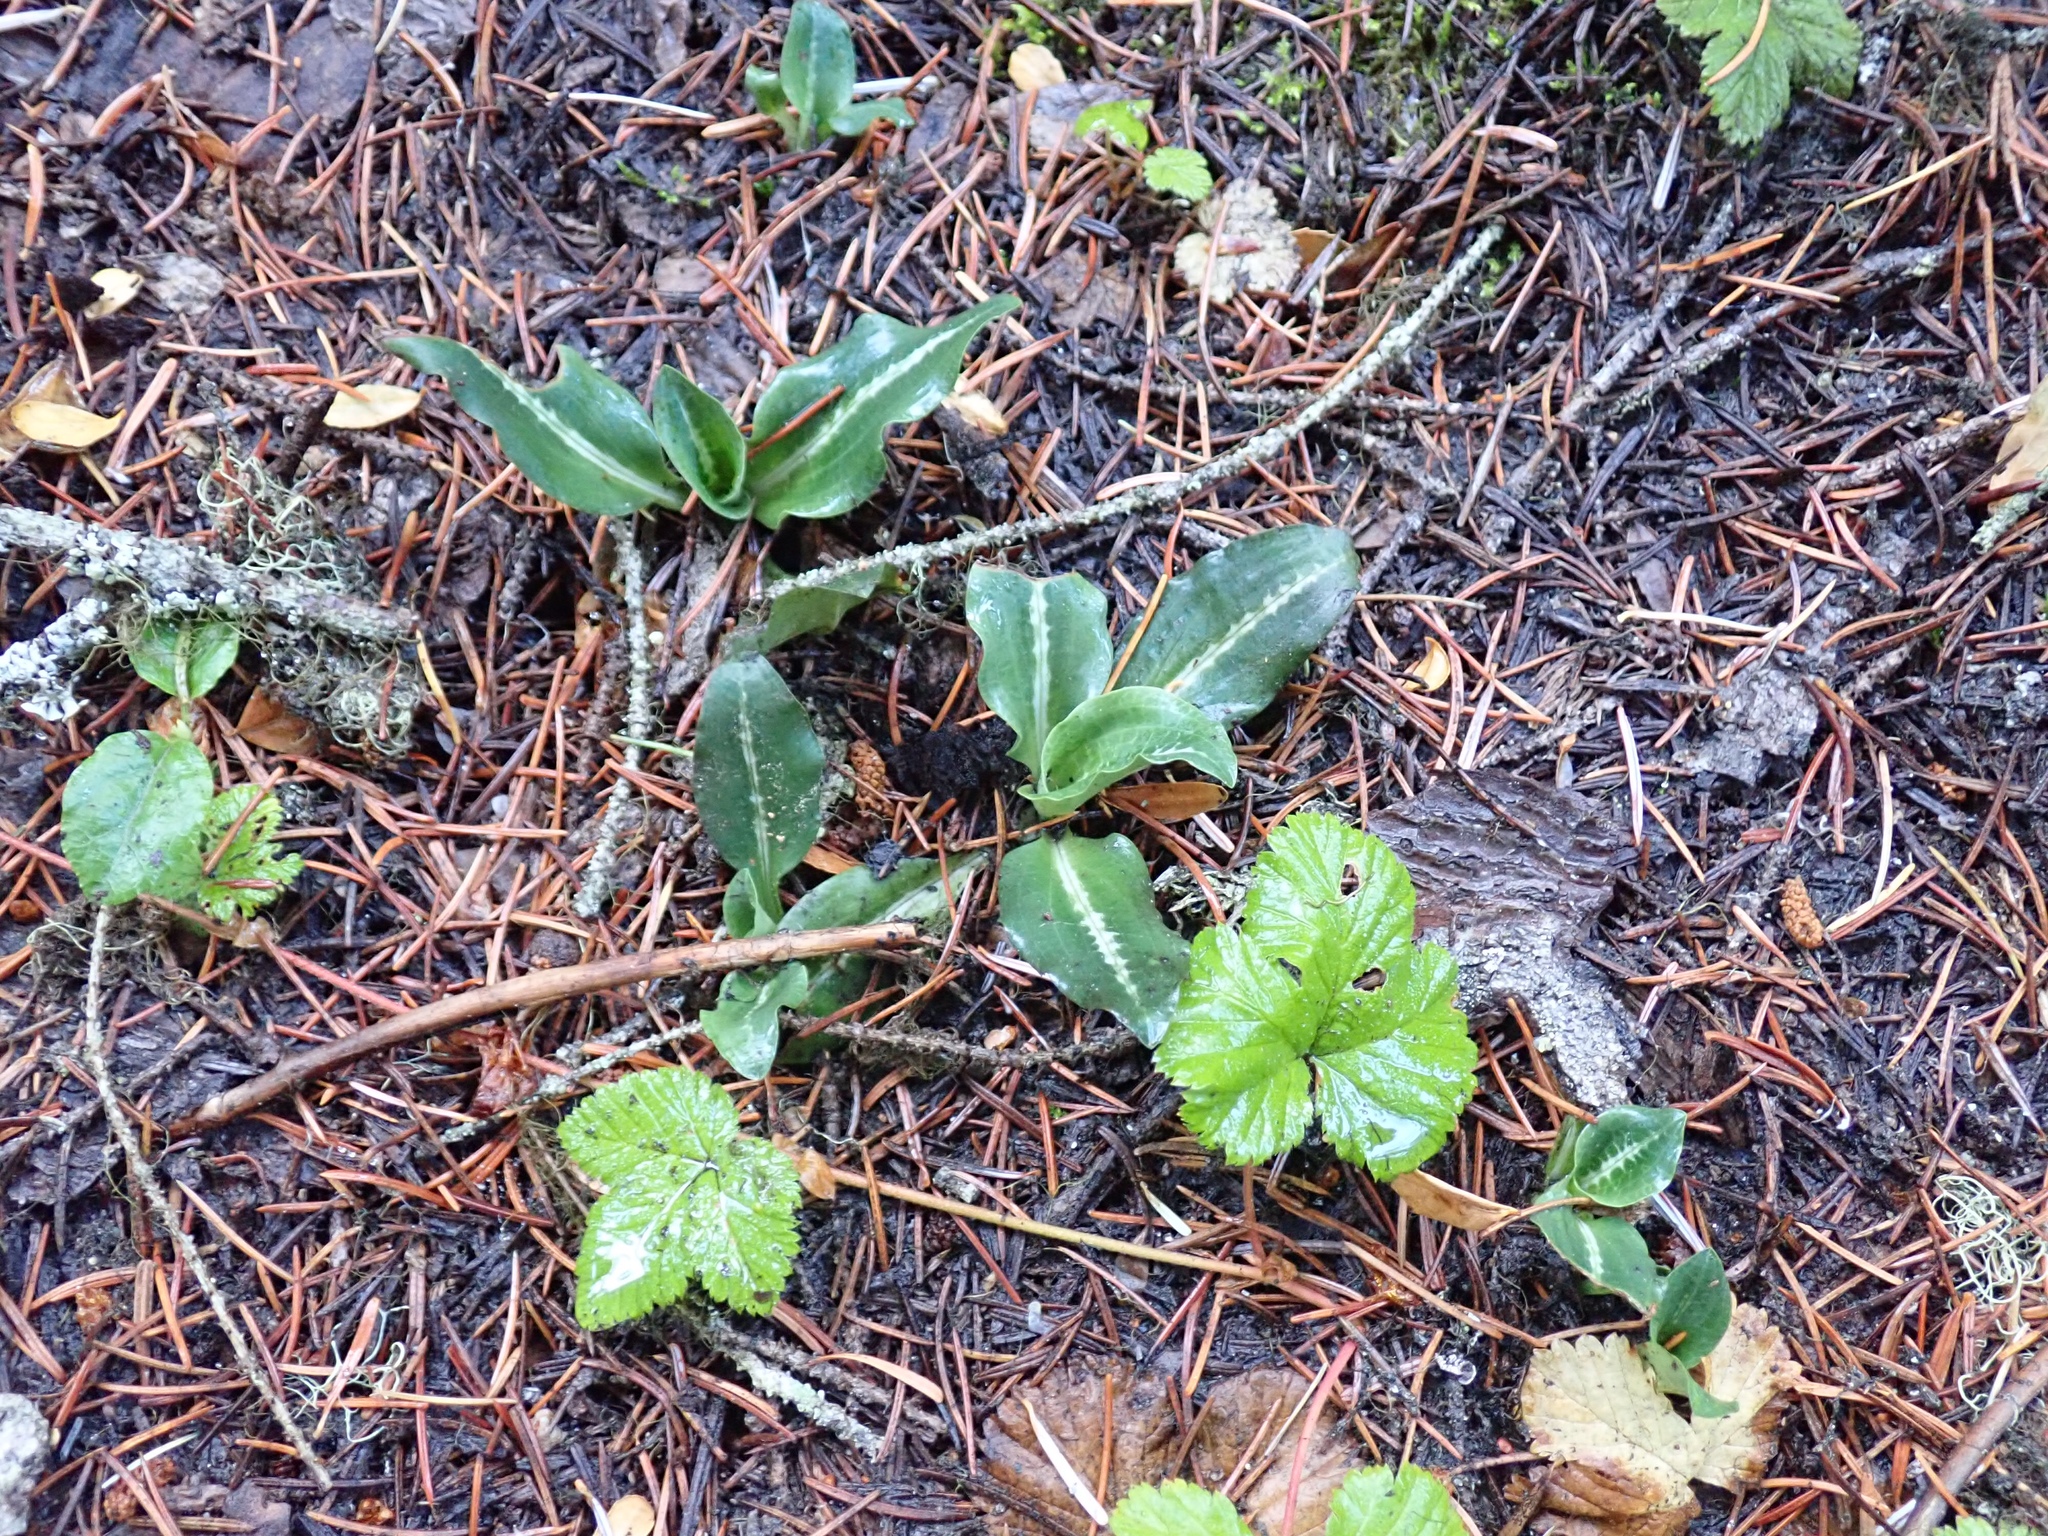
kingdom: Plantae
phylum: Tracheophyta
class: Liliopsida
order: Asparagales
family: Orchidaceae
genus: Goodyera
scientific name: Goodyera oblongifolia
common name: Giant rattlesnake-plantain
